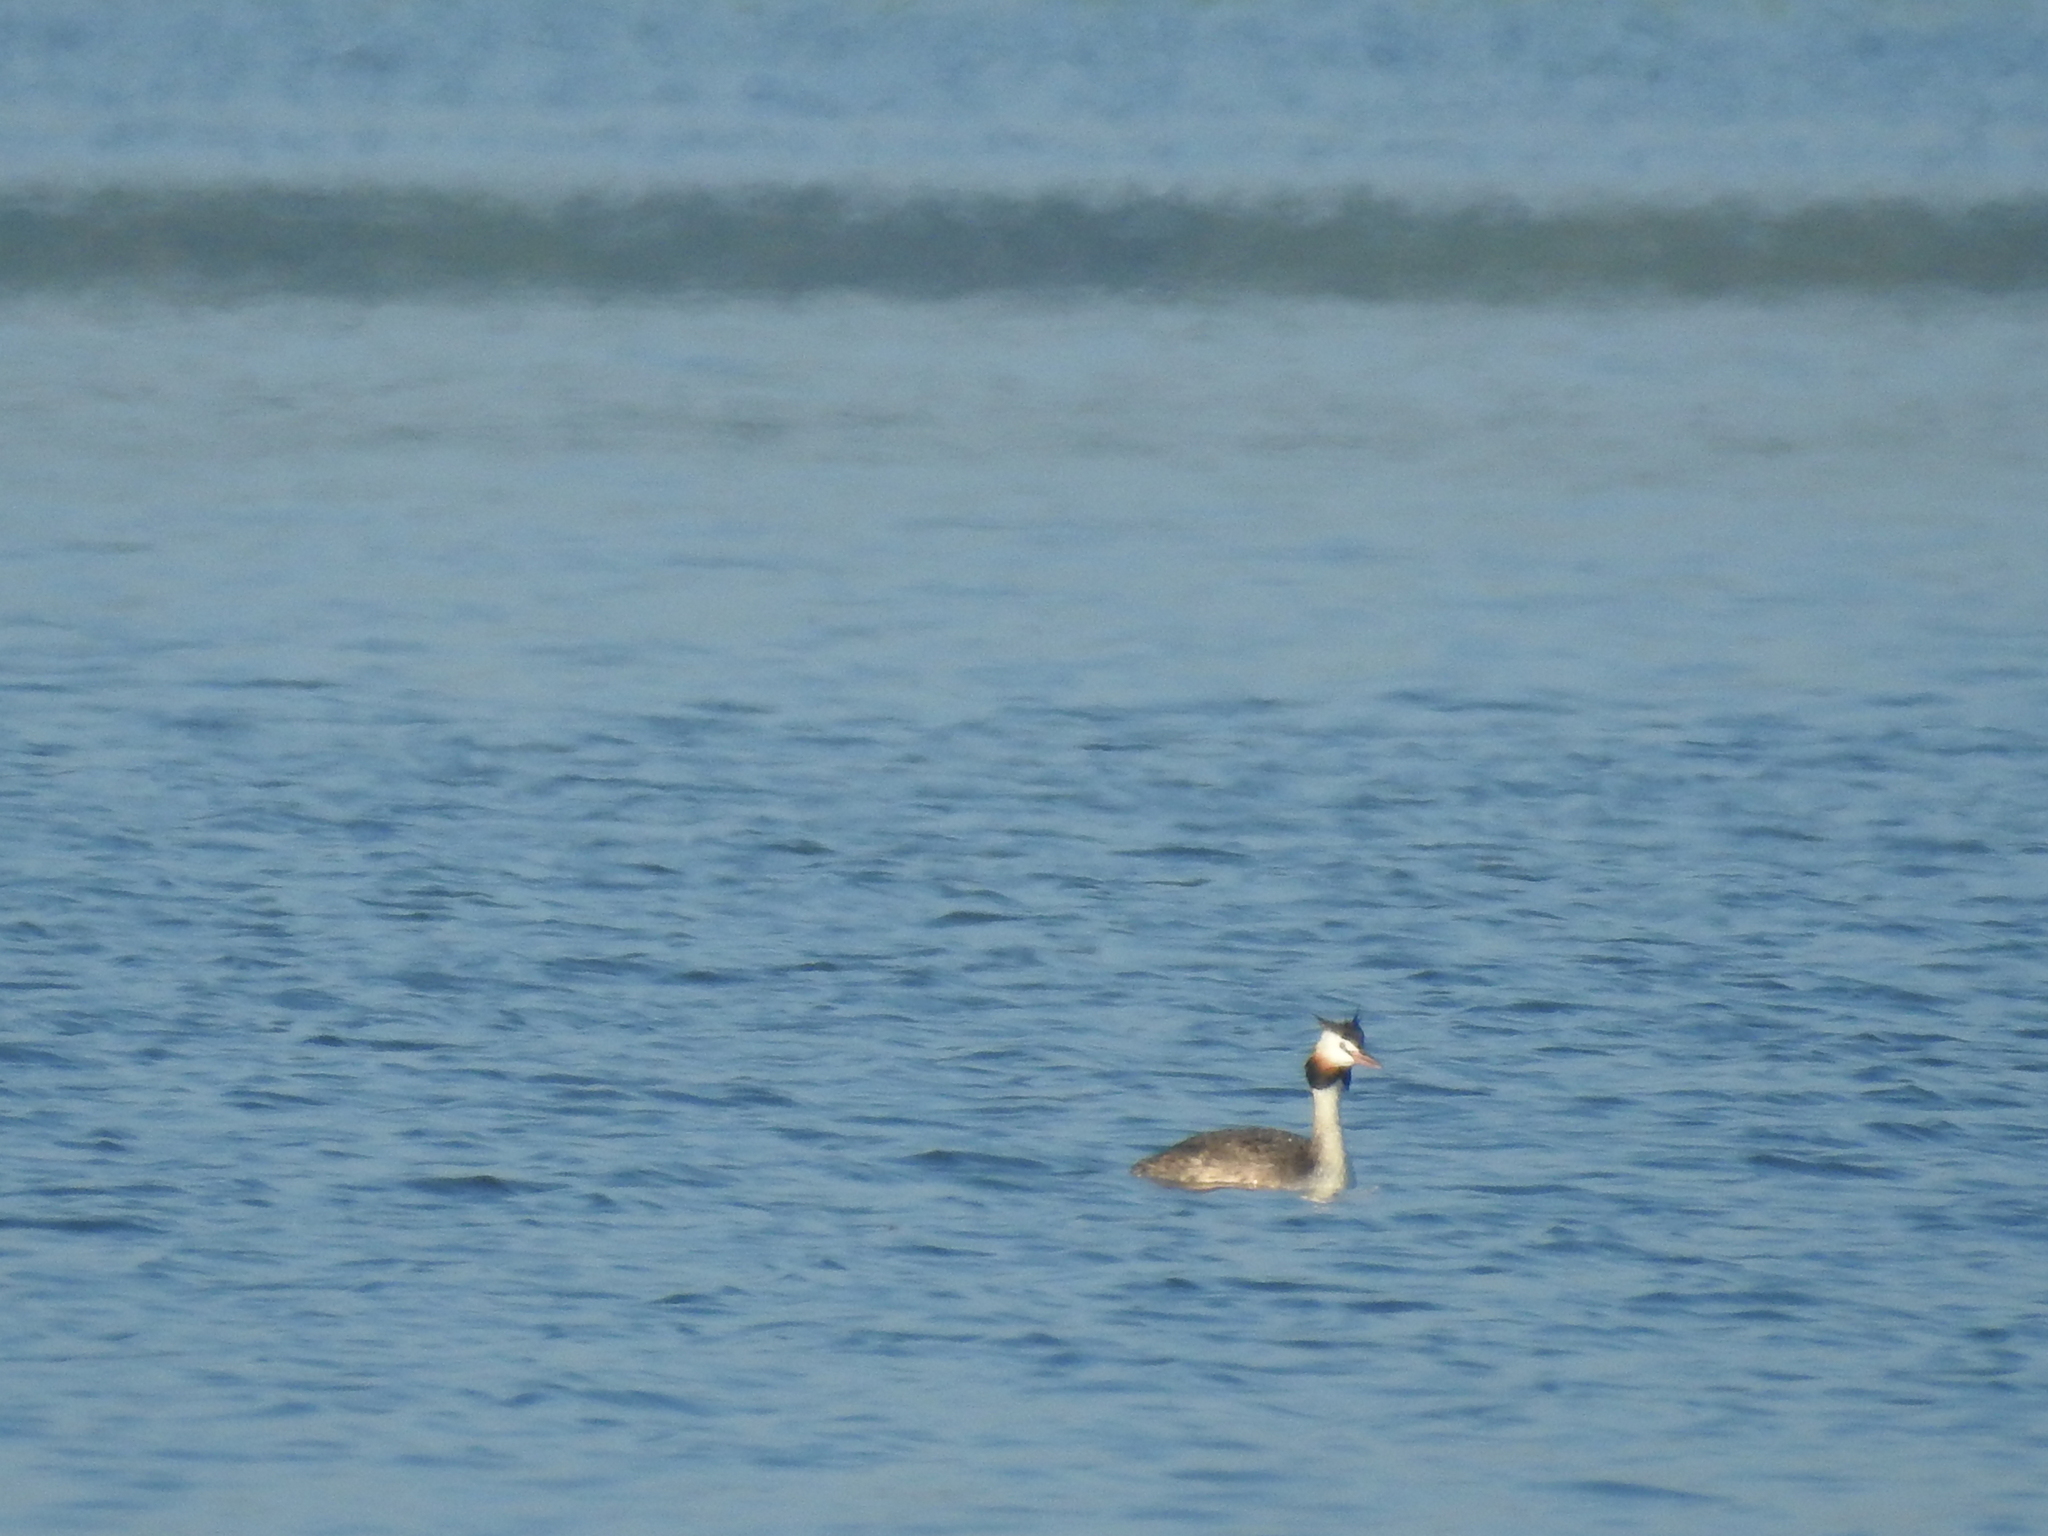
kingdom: Animalia
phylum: Chordata
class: Aves
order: Podicipediformes
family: Podicipedidae
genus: Podiceps
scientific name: Podiceps cristatus
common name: Great crested grebe
